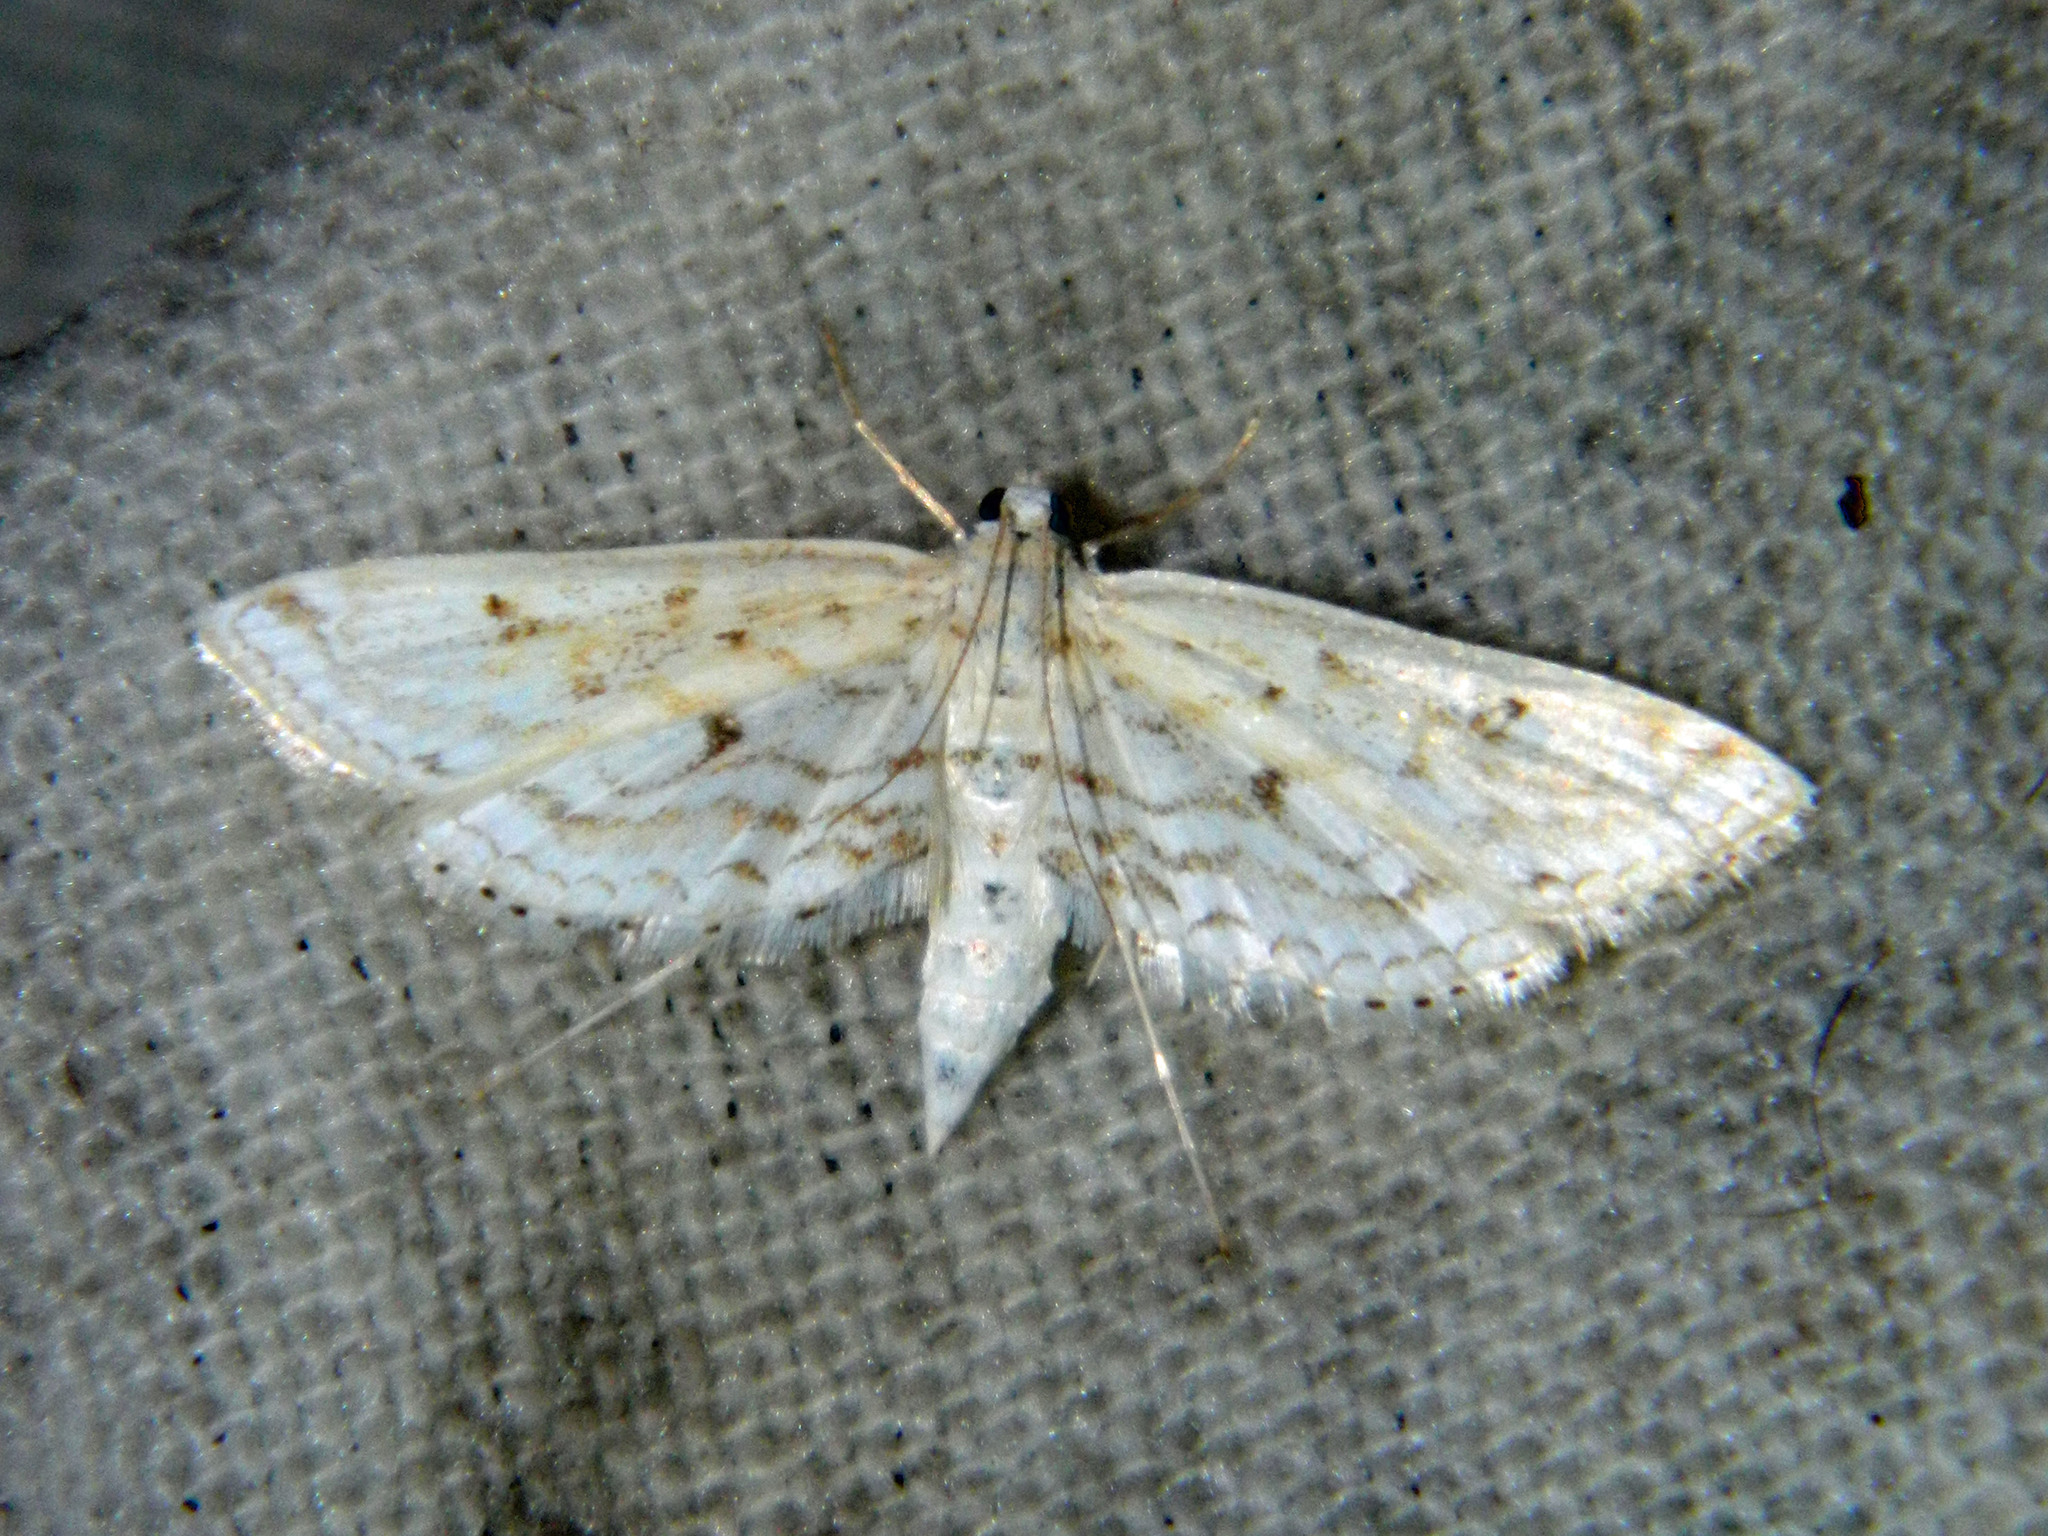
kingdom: Animalia
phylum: Arthropoda
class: Insecta
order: Lepidoptera
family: Crambidae
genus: Parapoynx
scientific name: Parapoynx allionealis
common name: Bladderwort casemaker
